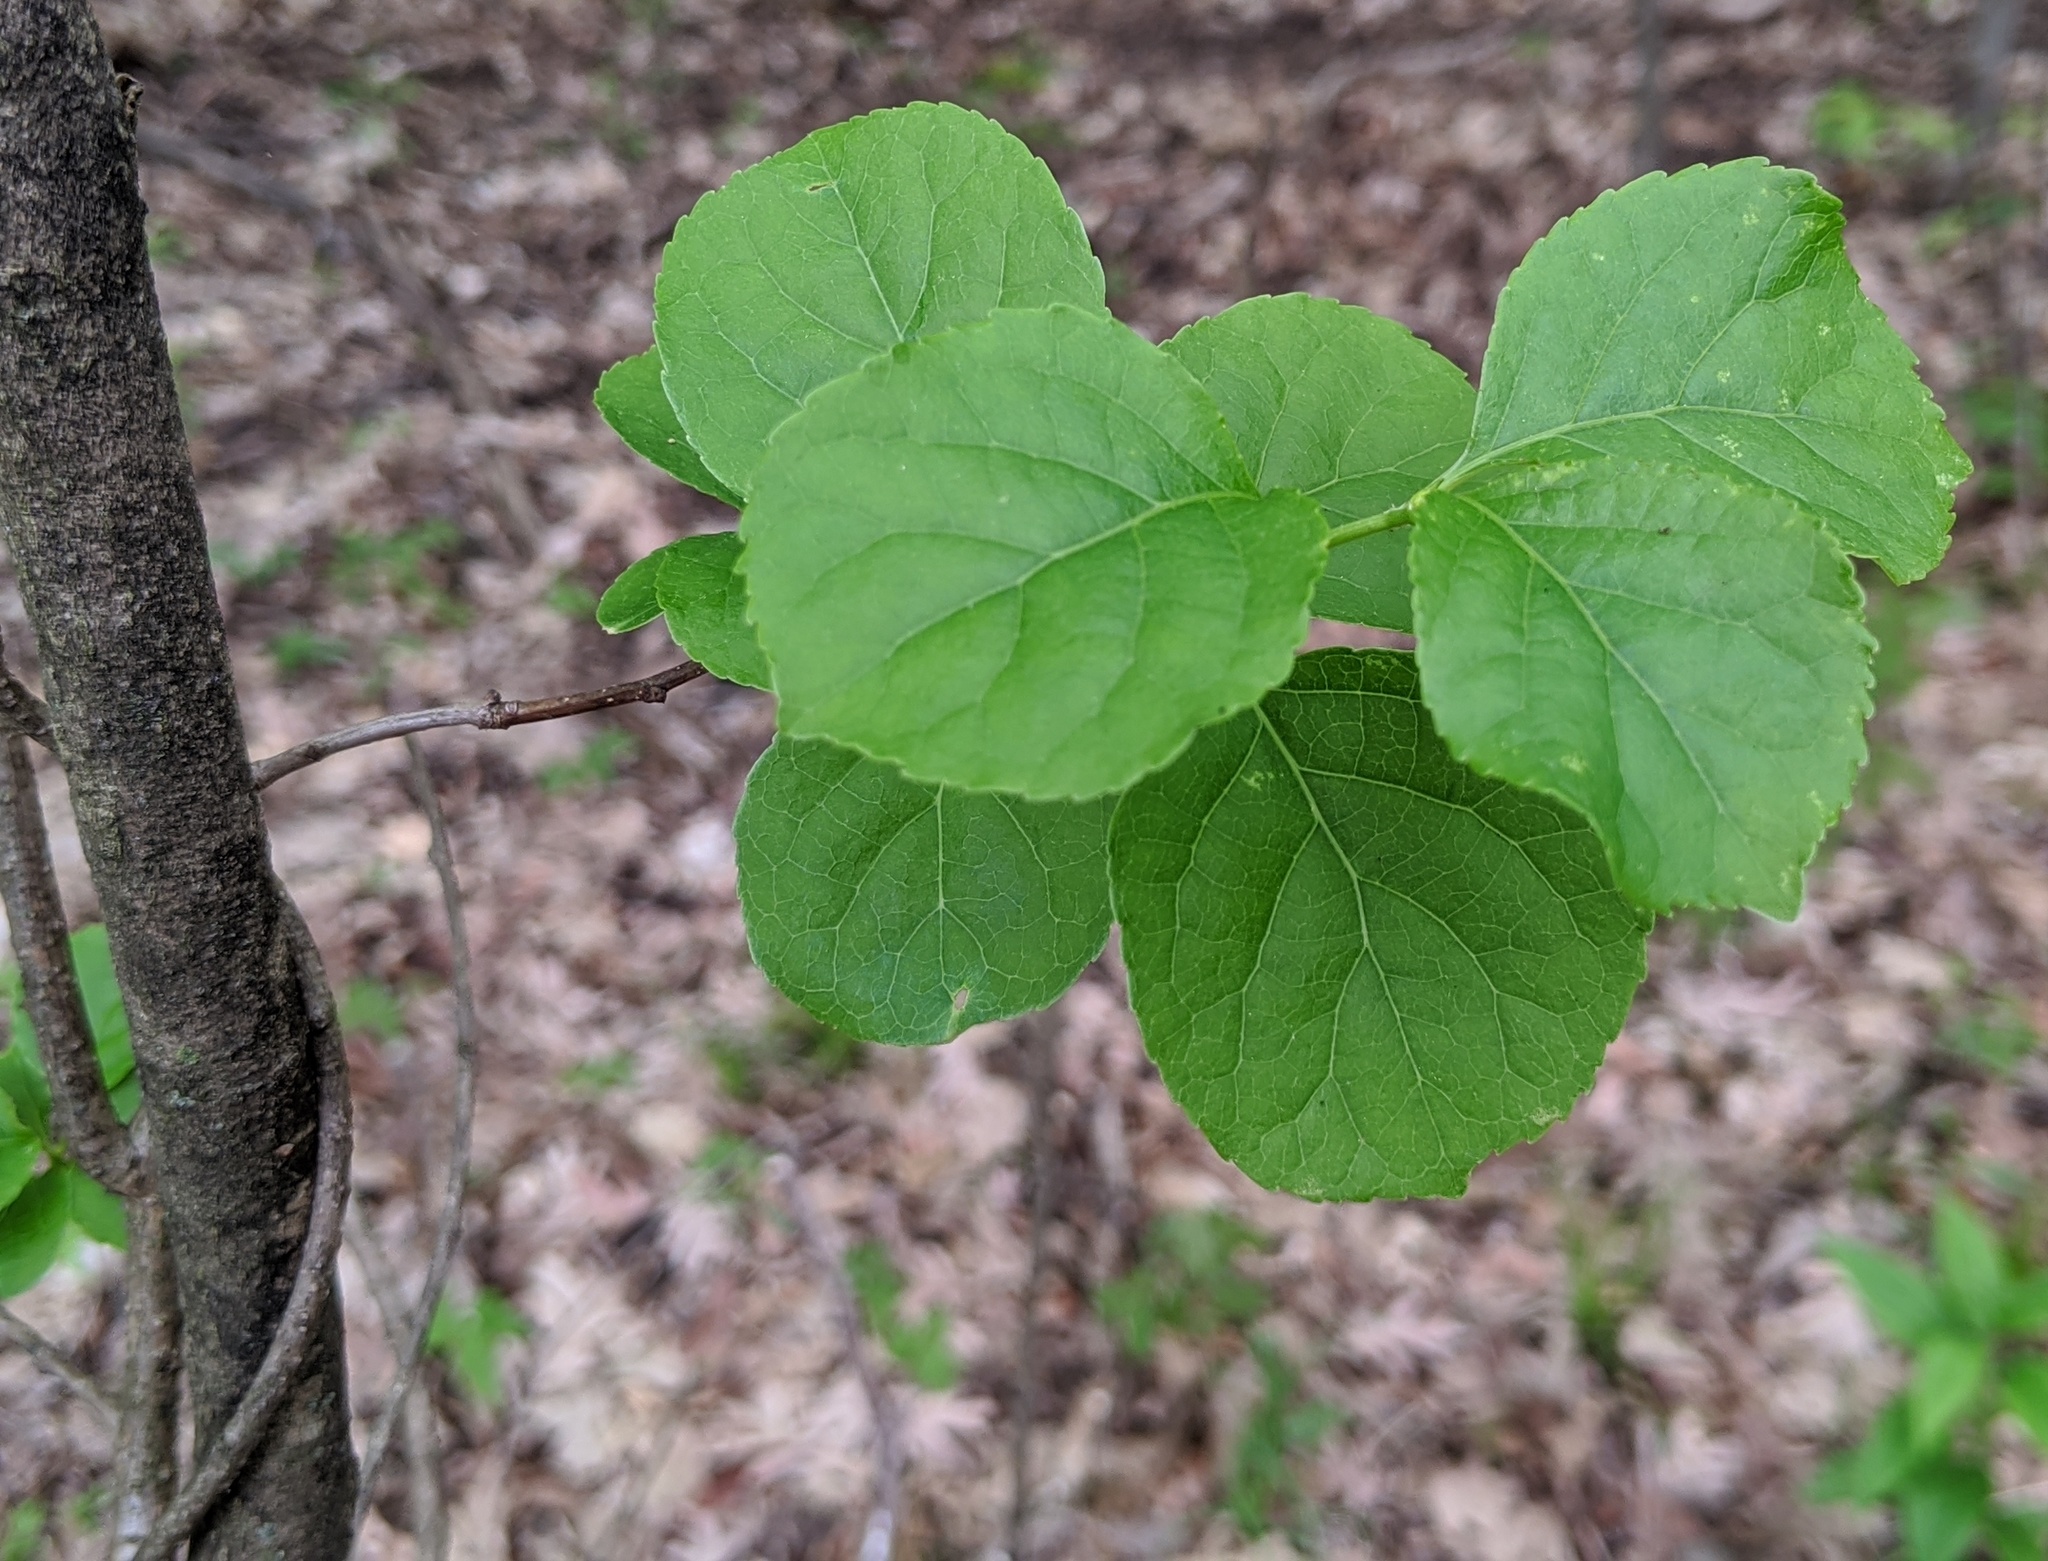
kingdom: Plantae
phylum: Tracheophyta
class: Magnoliopsida
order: Celastrales
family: Celastraceae
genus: Celastrus
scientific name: Celastrus orbiculatus
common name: Oriental bittersweet
